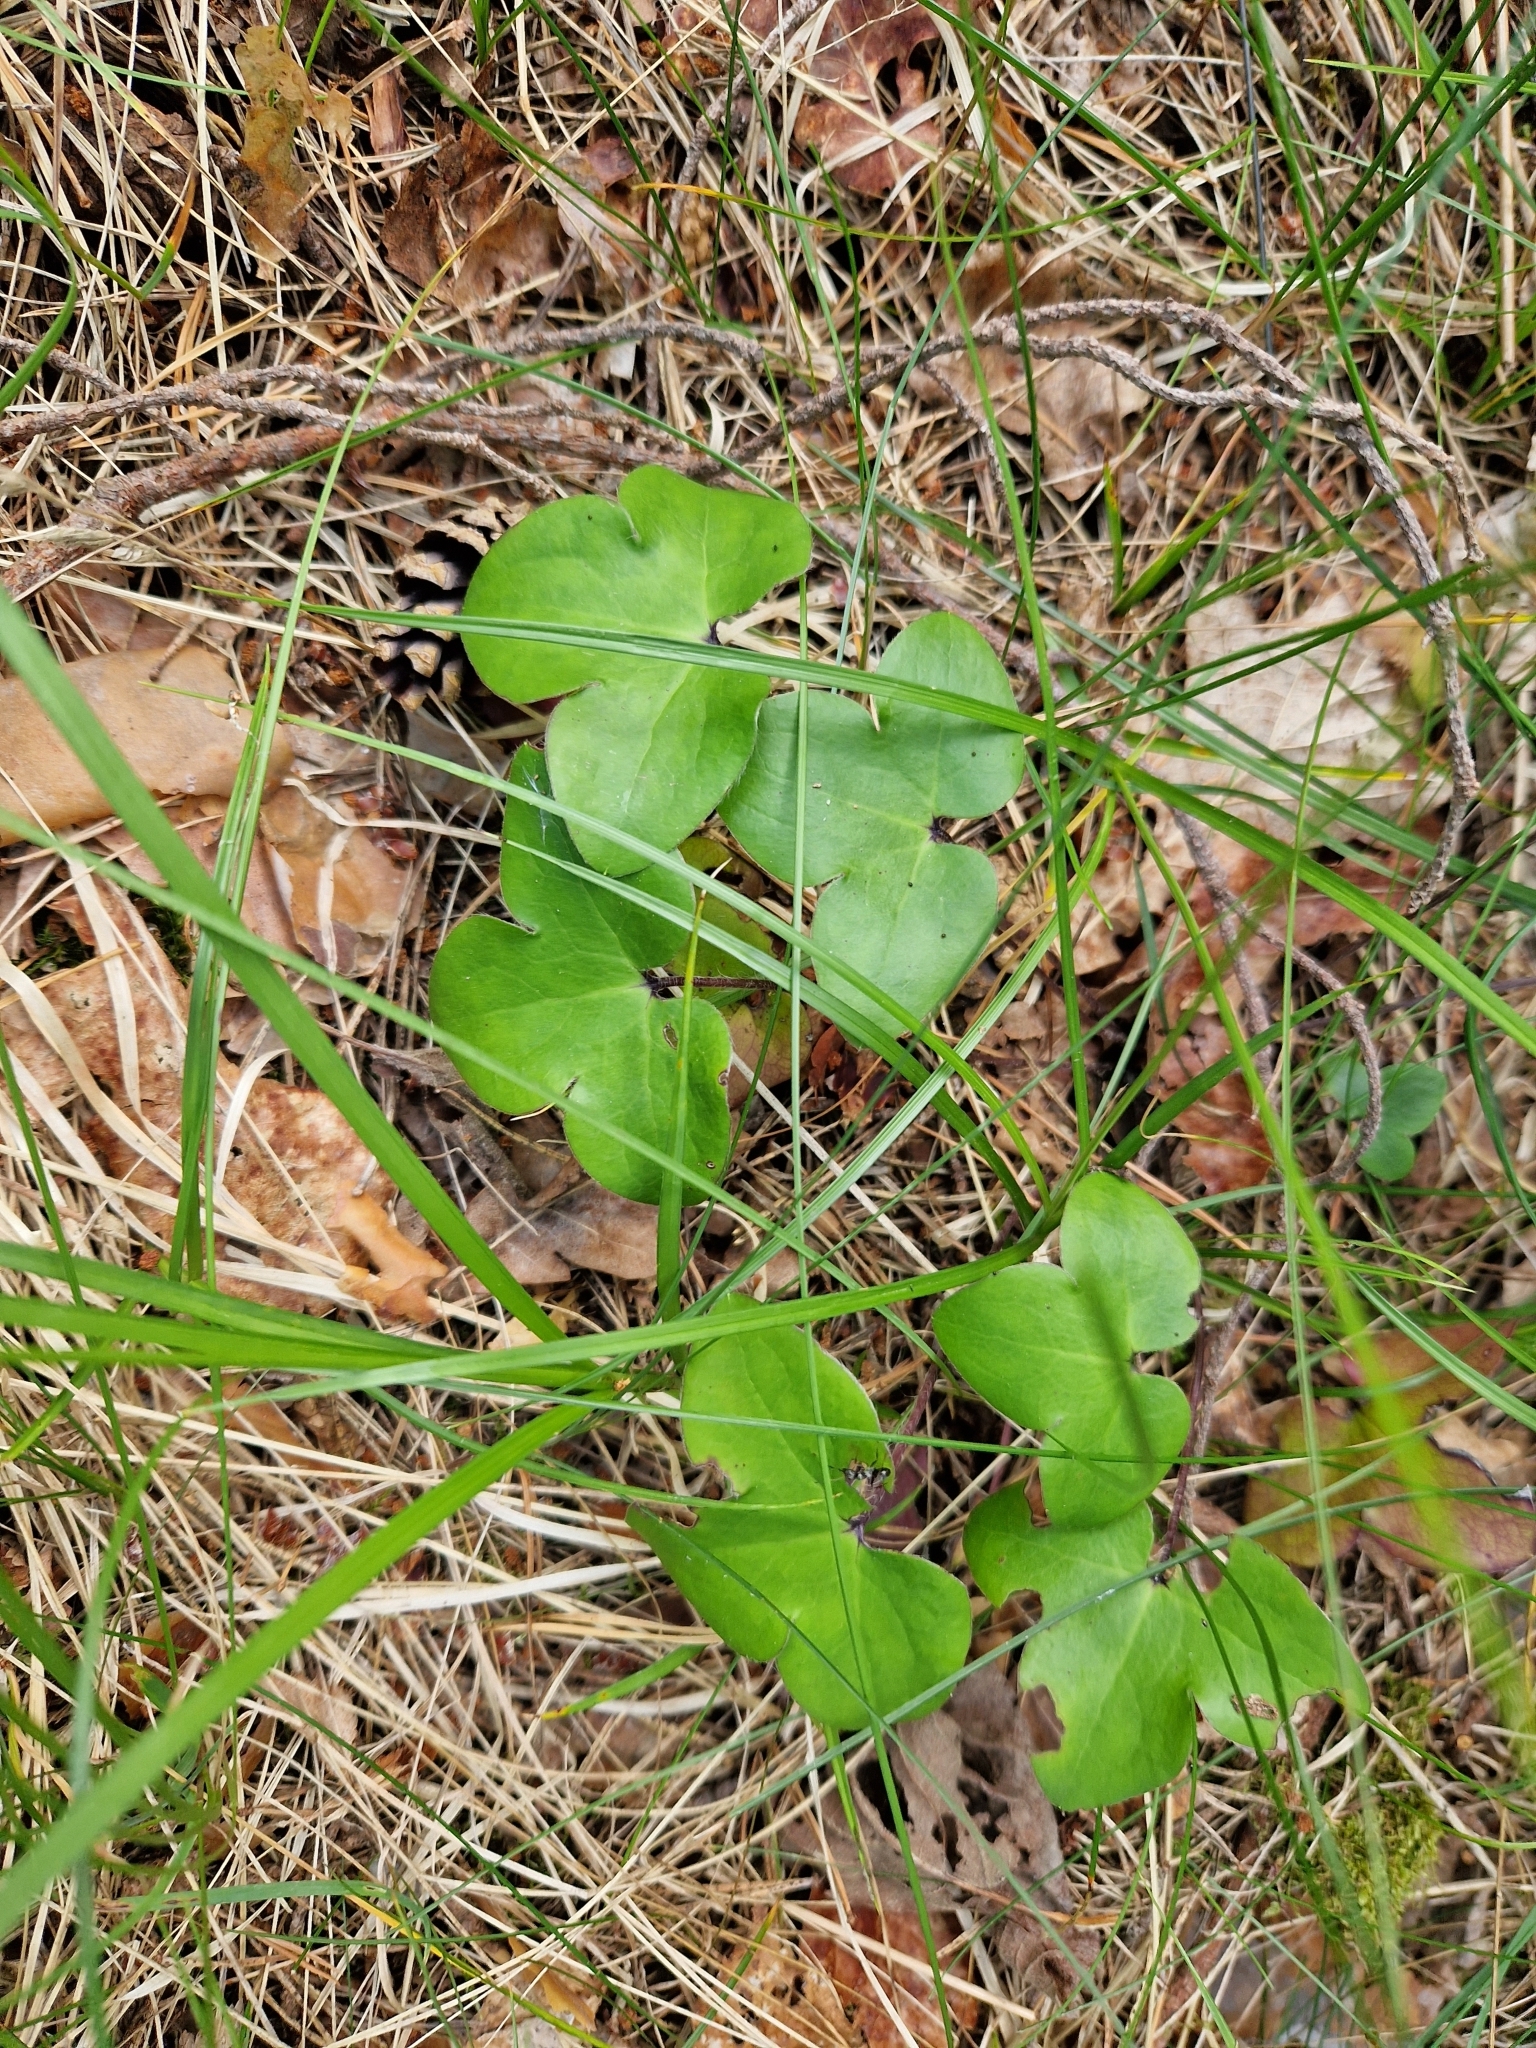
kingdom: Plantae
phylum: Tracheophyta
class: Magnoliopsida
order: Ranunculales
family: Ranunculaceae
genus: Hepatica
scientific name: Hepatica nobilis
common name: Liverleaf
